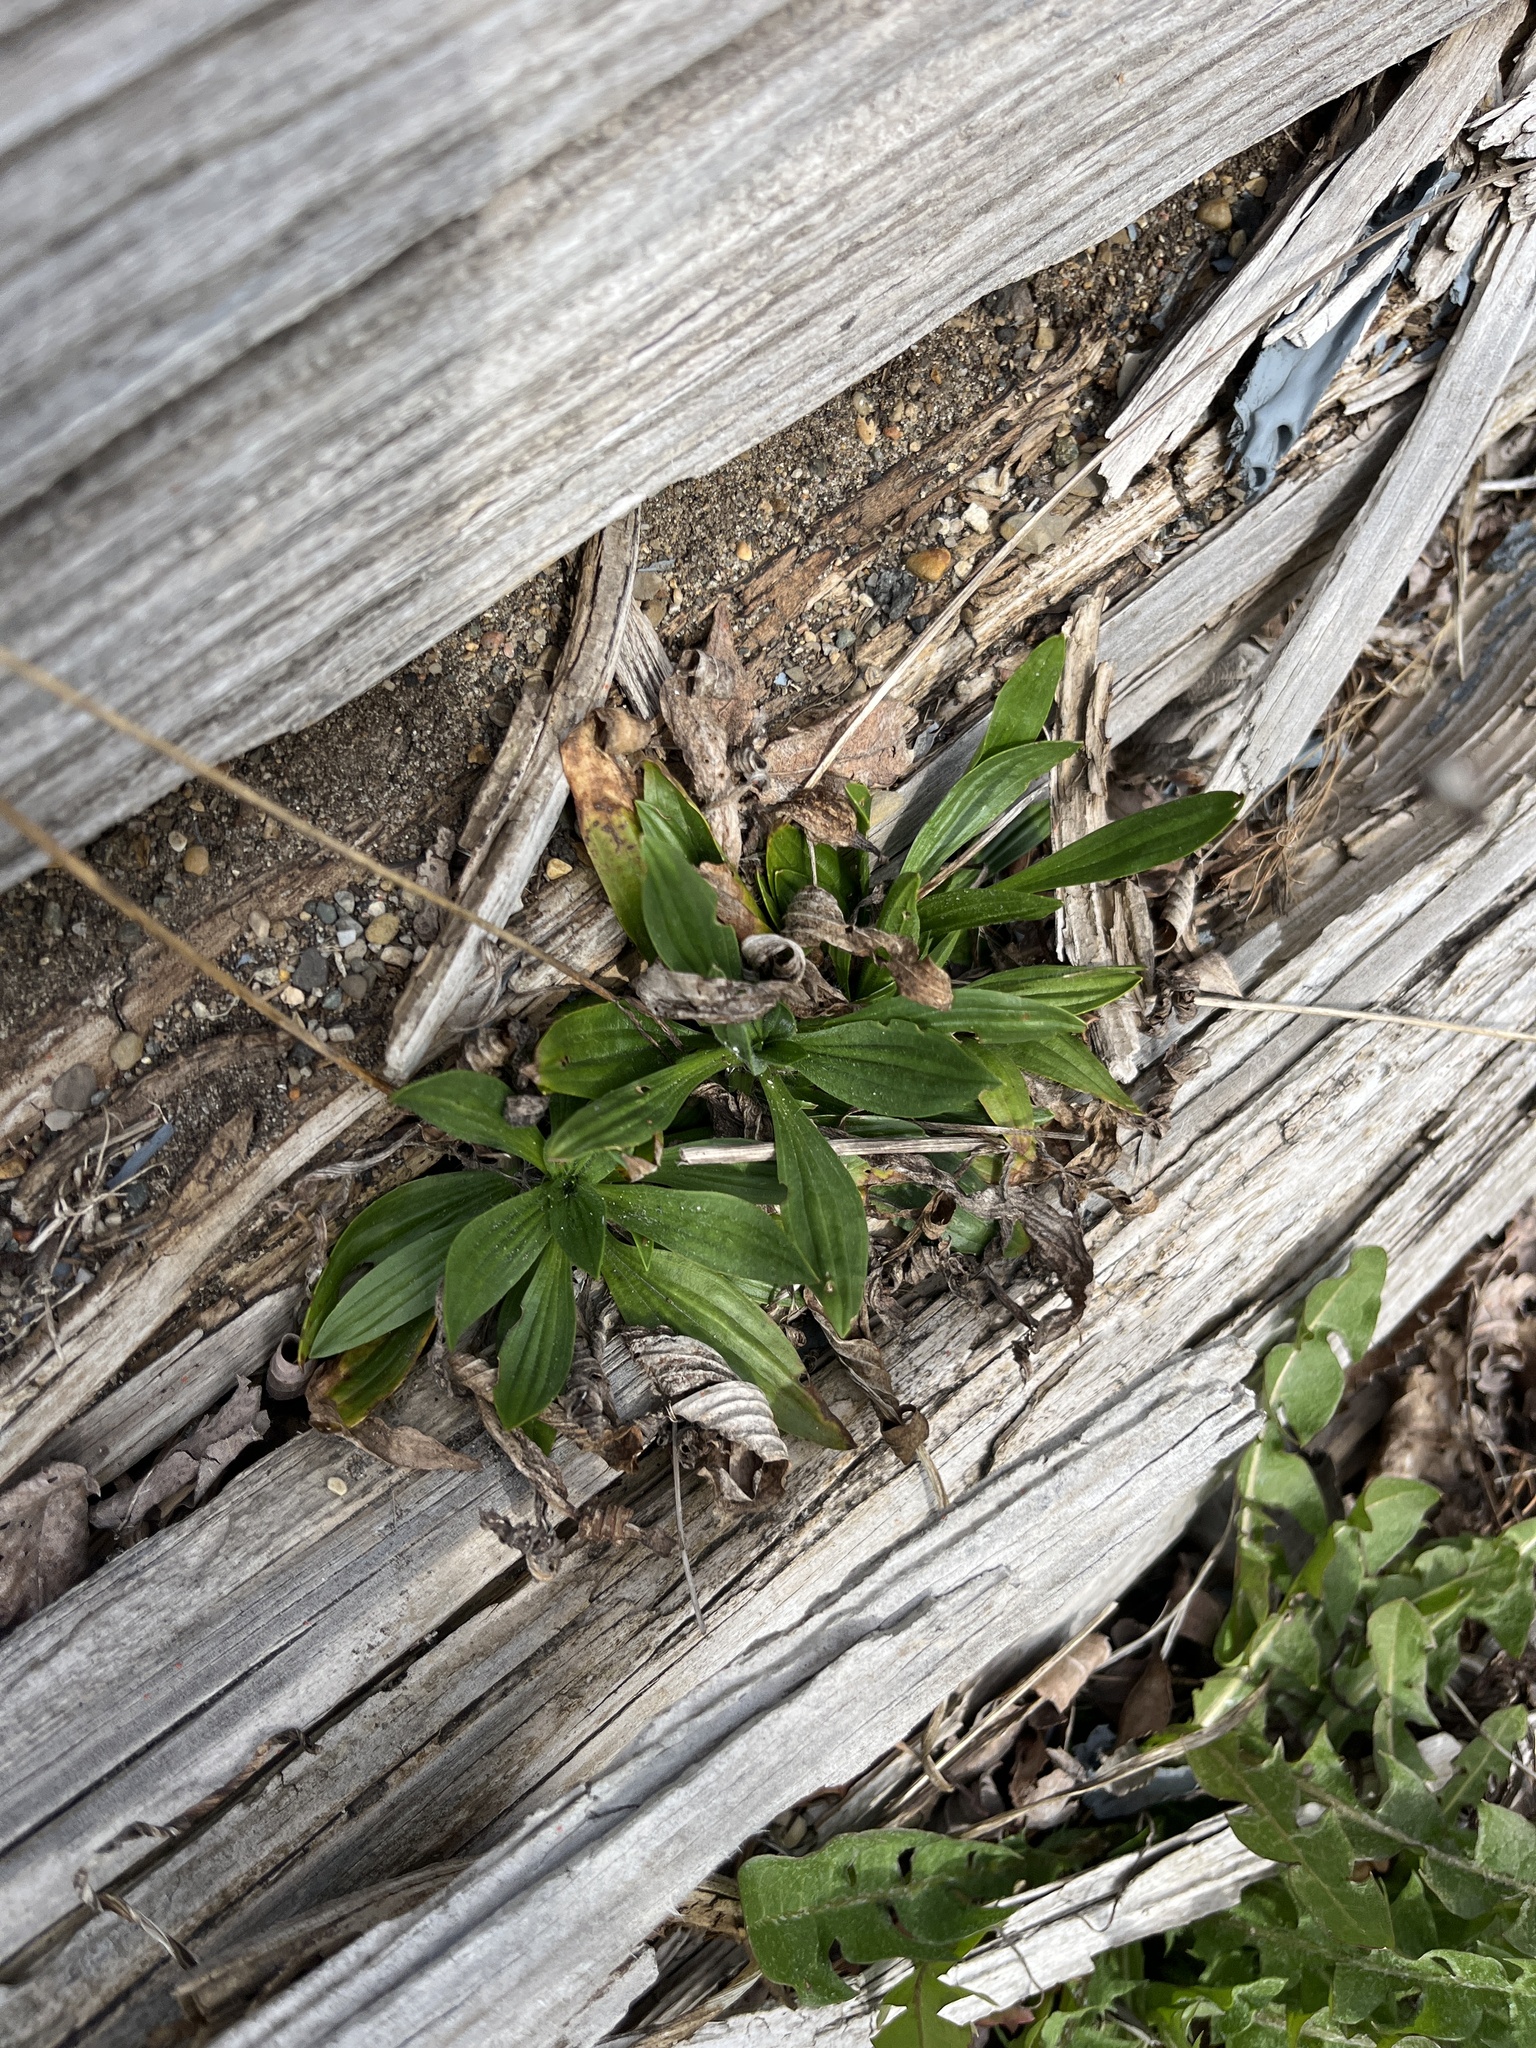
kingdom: Plantae
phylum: Tracheophyta
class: Magnoliopsida
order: Lamiales
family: Plantaginaceae
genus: Plantago
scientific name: Plantago lanceolata
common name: Ribwort plantain
